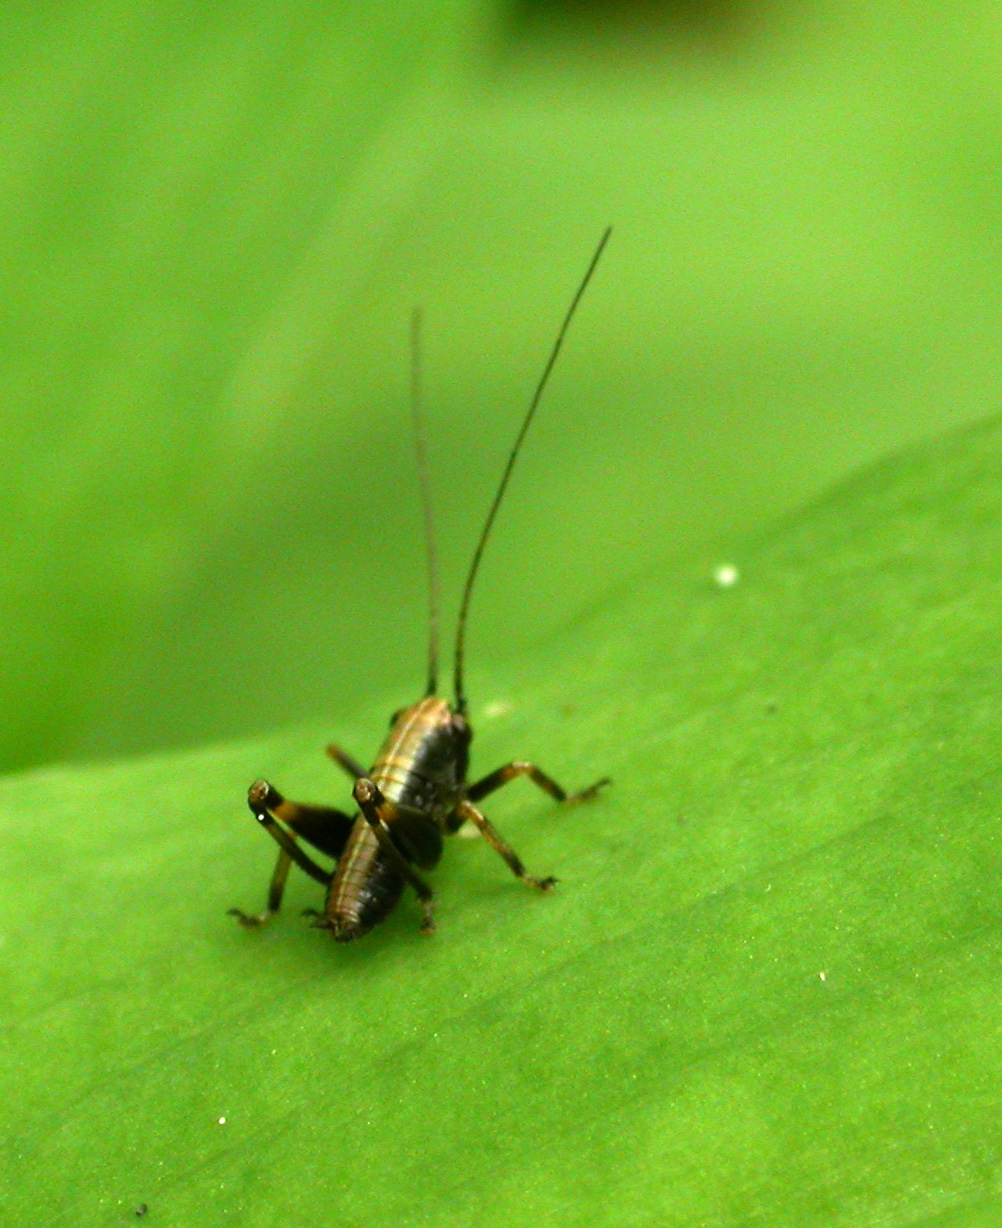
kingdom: Animalia
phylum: Arthropoda
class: Insecta
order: Orthoptera
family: Tettigoniidae
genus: Pholidoptera
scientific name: Pholidoptera griseoaptera
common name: Dark bush-cricket
